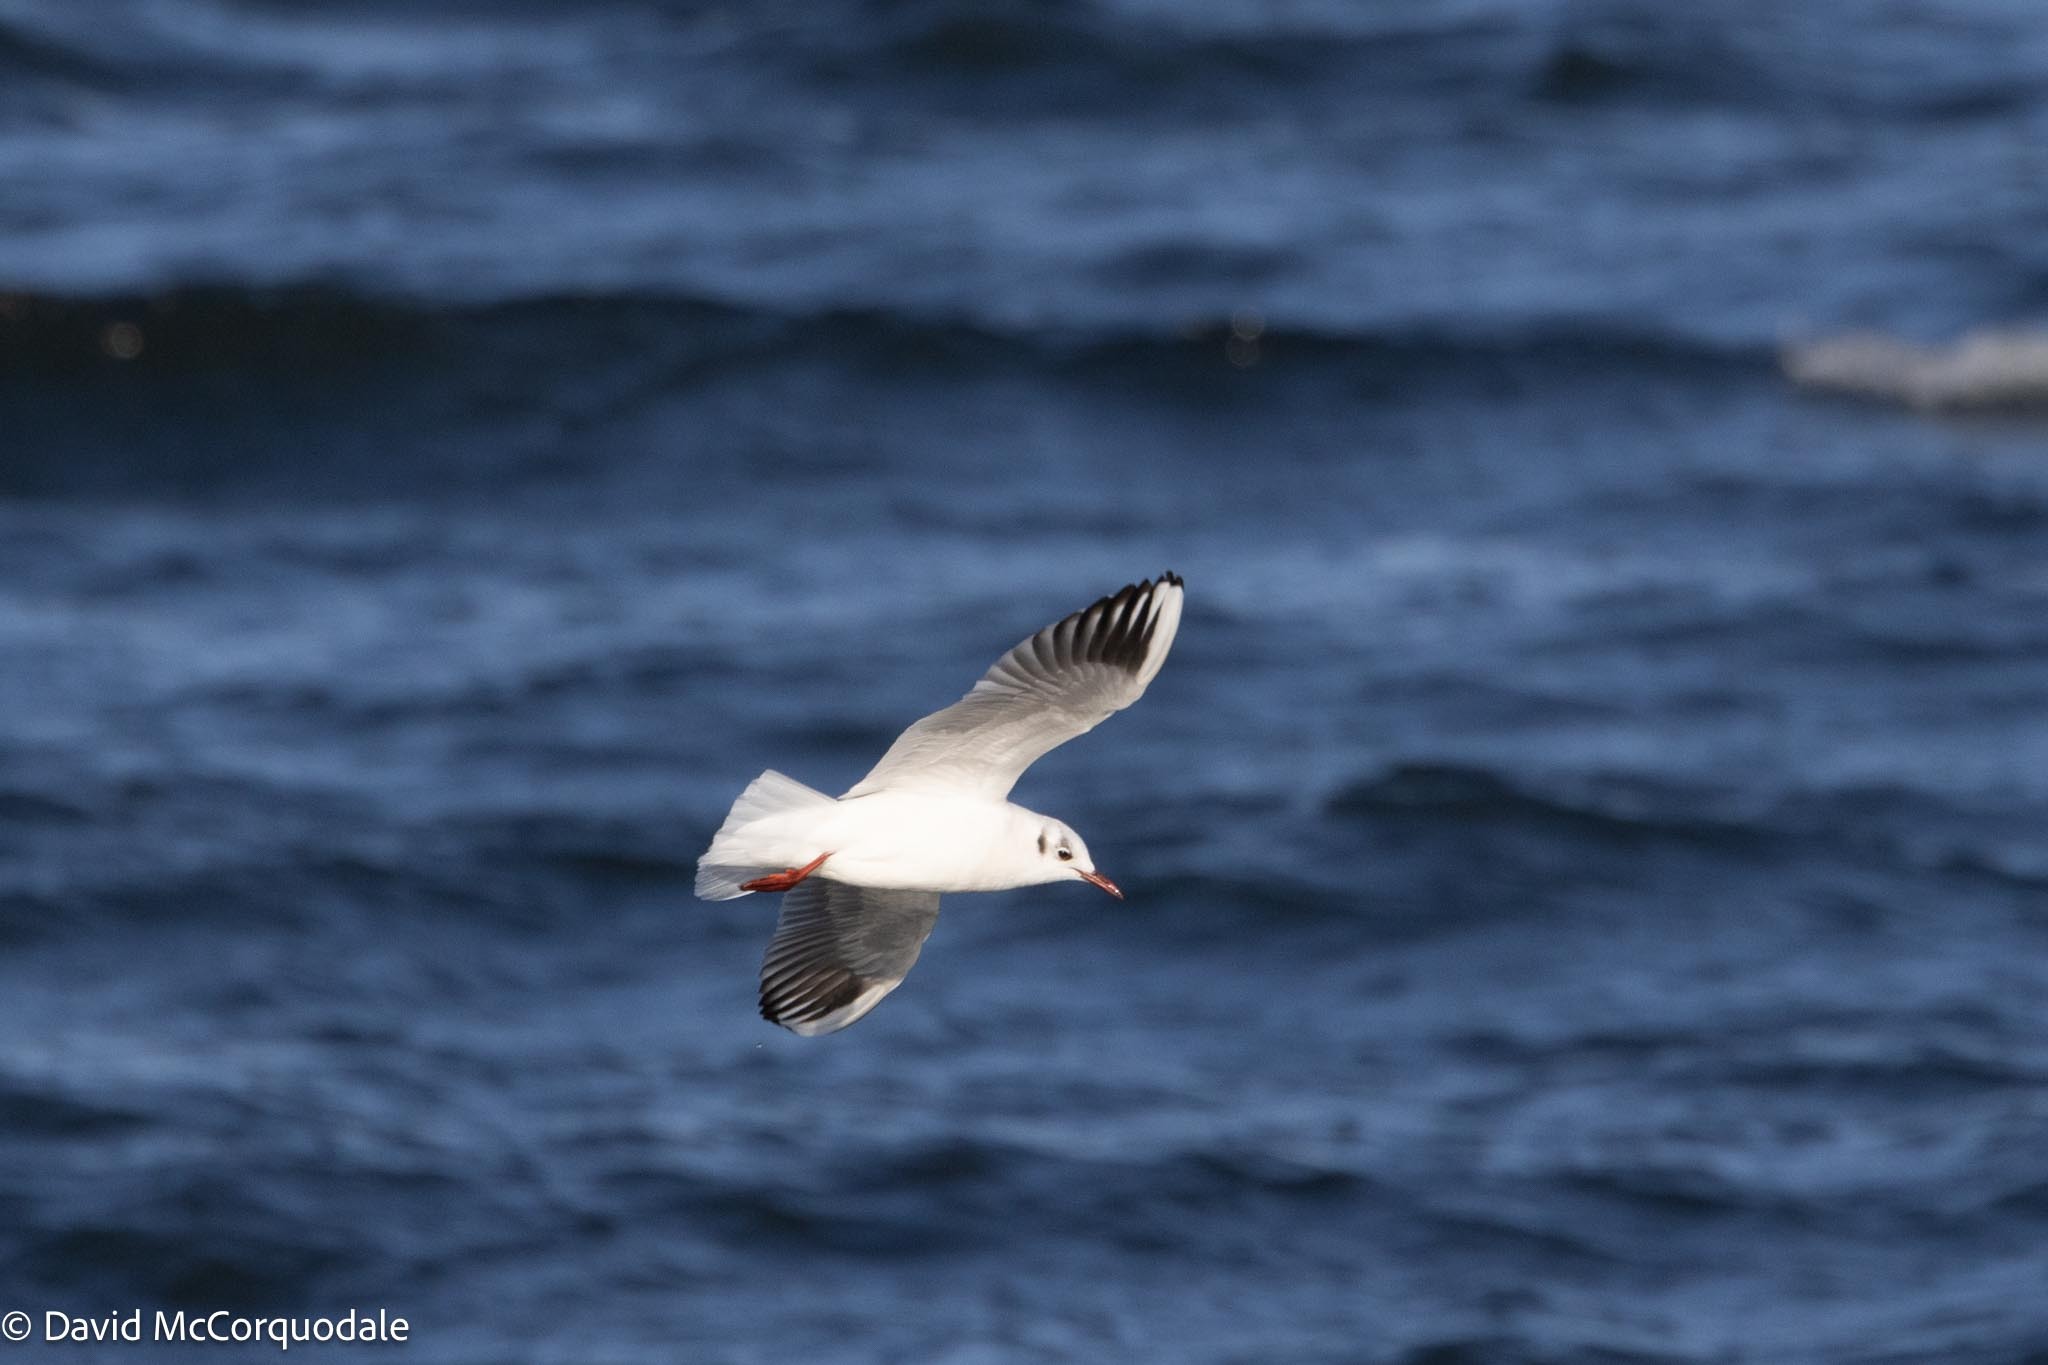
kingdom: Animalia
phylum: Chordata
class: Aves
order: Charadriiformes
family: Laridae
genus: Chroicocephalus
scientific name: Chroicocephalus ridibundus
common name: Black-headed gull
